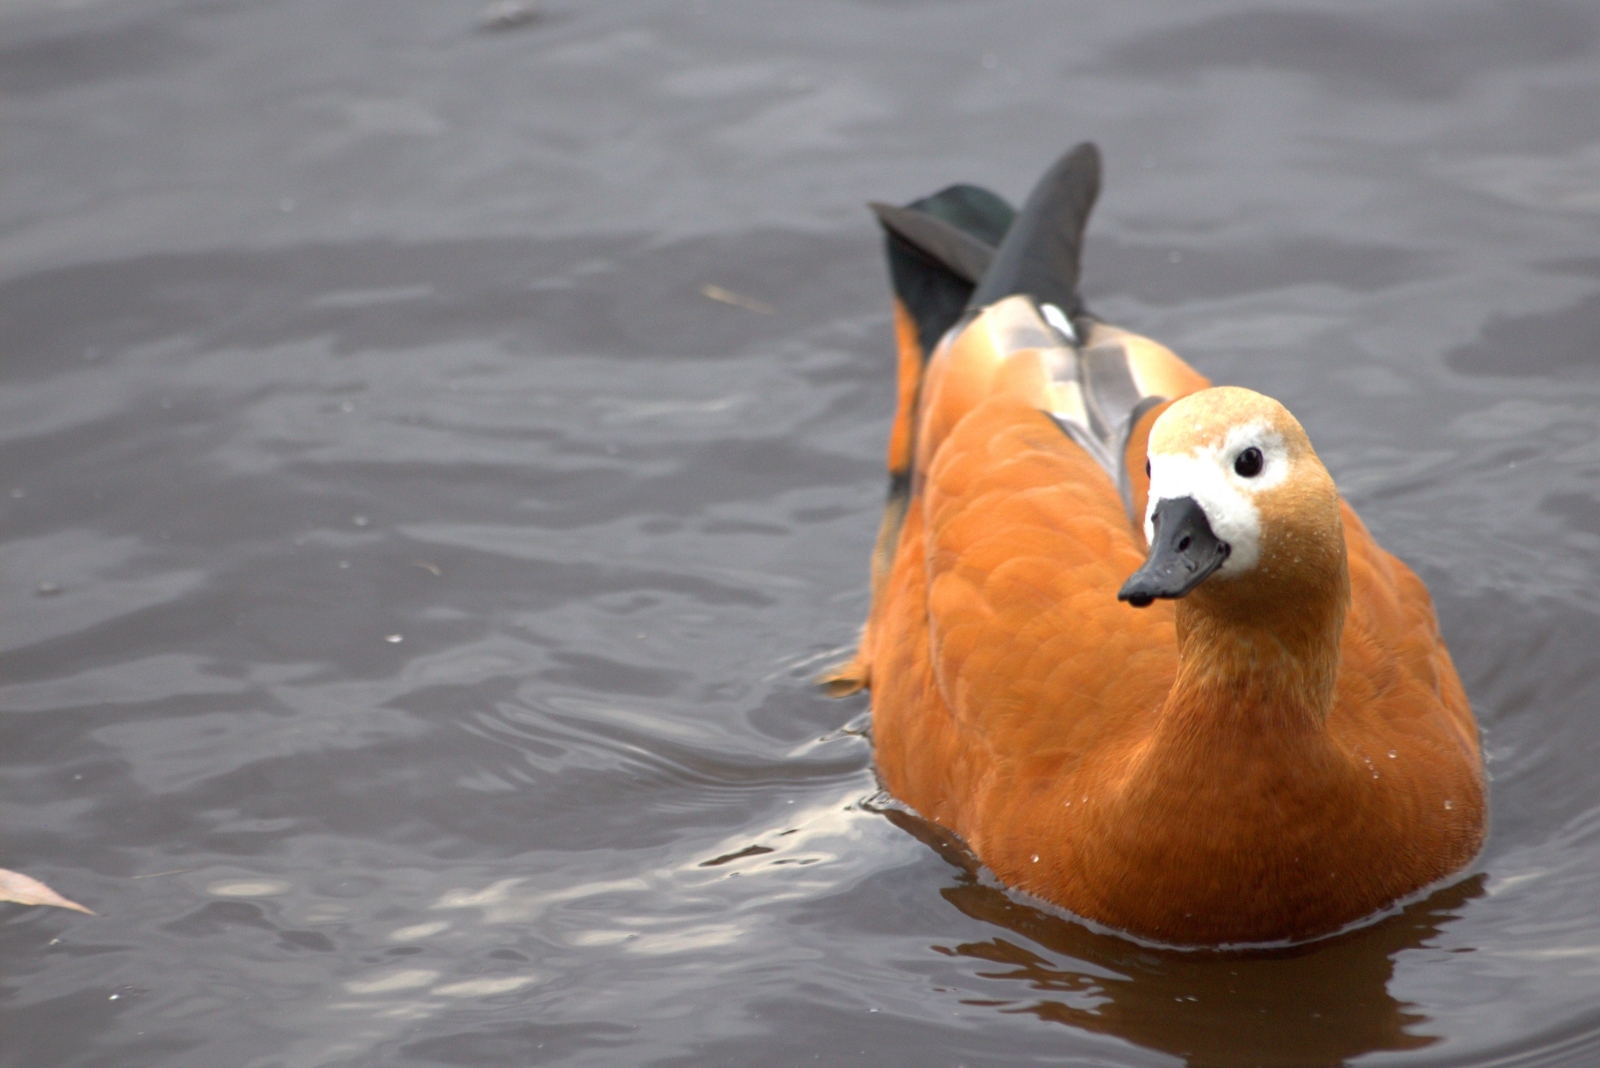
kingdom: Animalia
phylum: Chordata
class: Aves
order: Anseriformes
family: Anatidae
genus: Tadorna
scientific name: Tadorna ferruginea
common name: Ruddy shelduck
